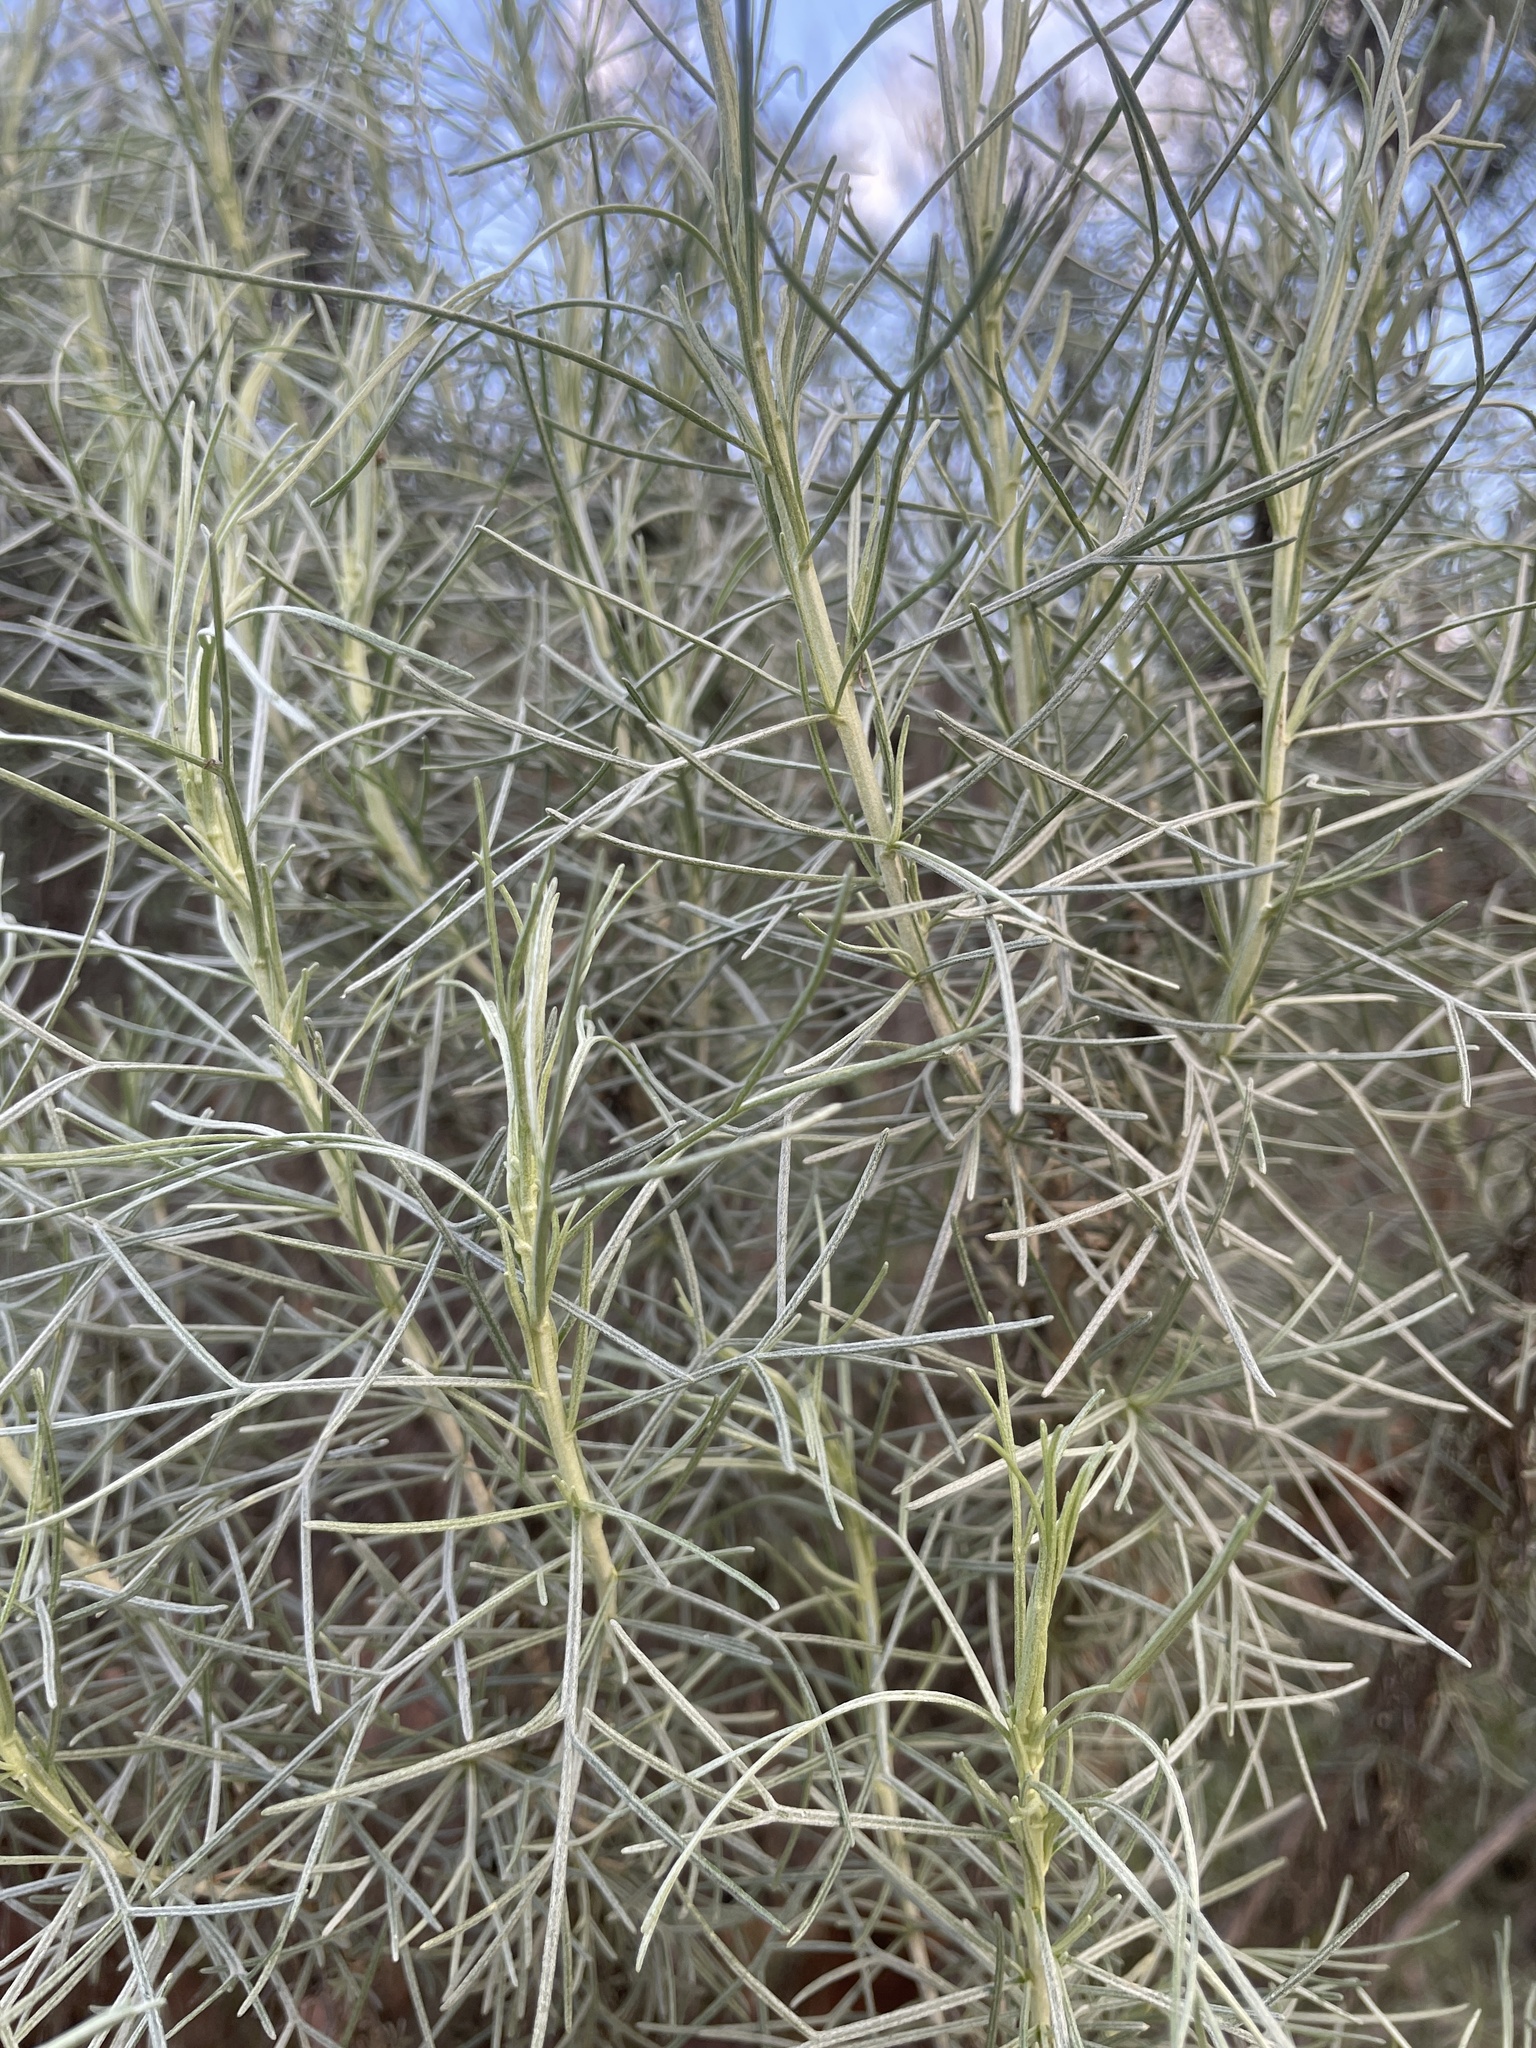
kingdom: Plantae
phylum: Tracheophyta
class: Magnoliopsida
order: Asterales
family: Asteraceae
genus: Artemisia
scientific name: Artemisia californica
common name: California sagebrush
